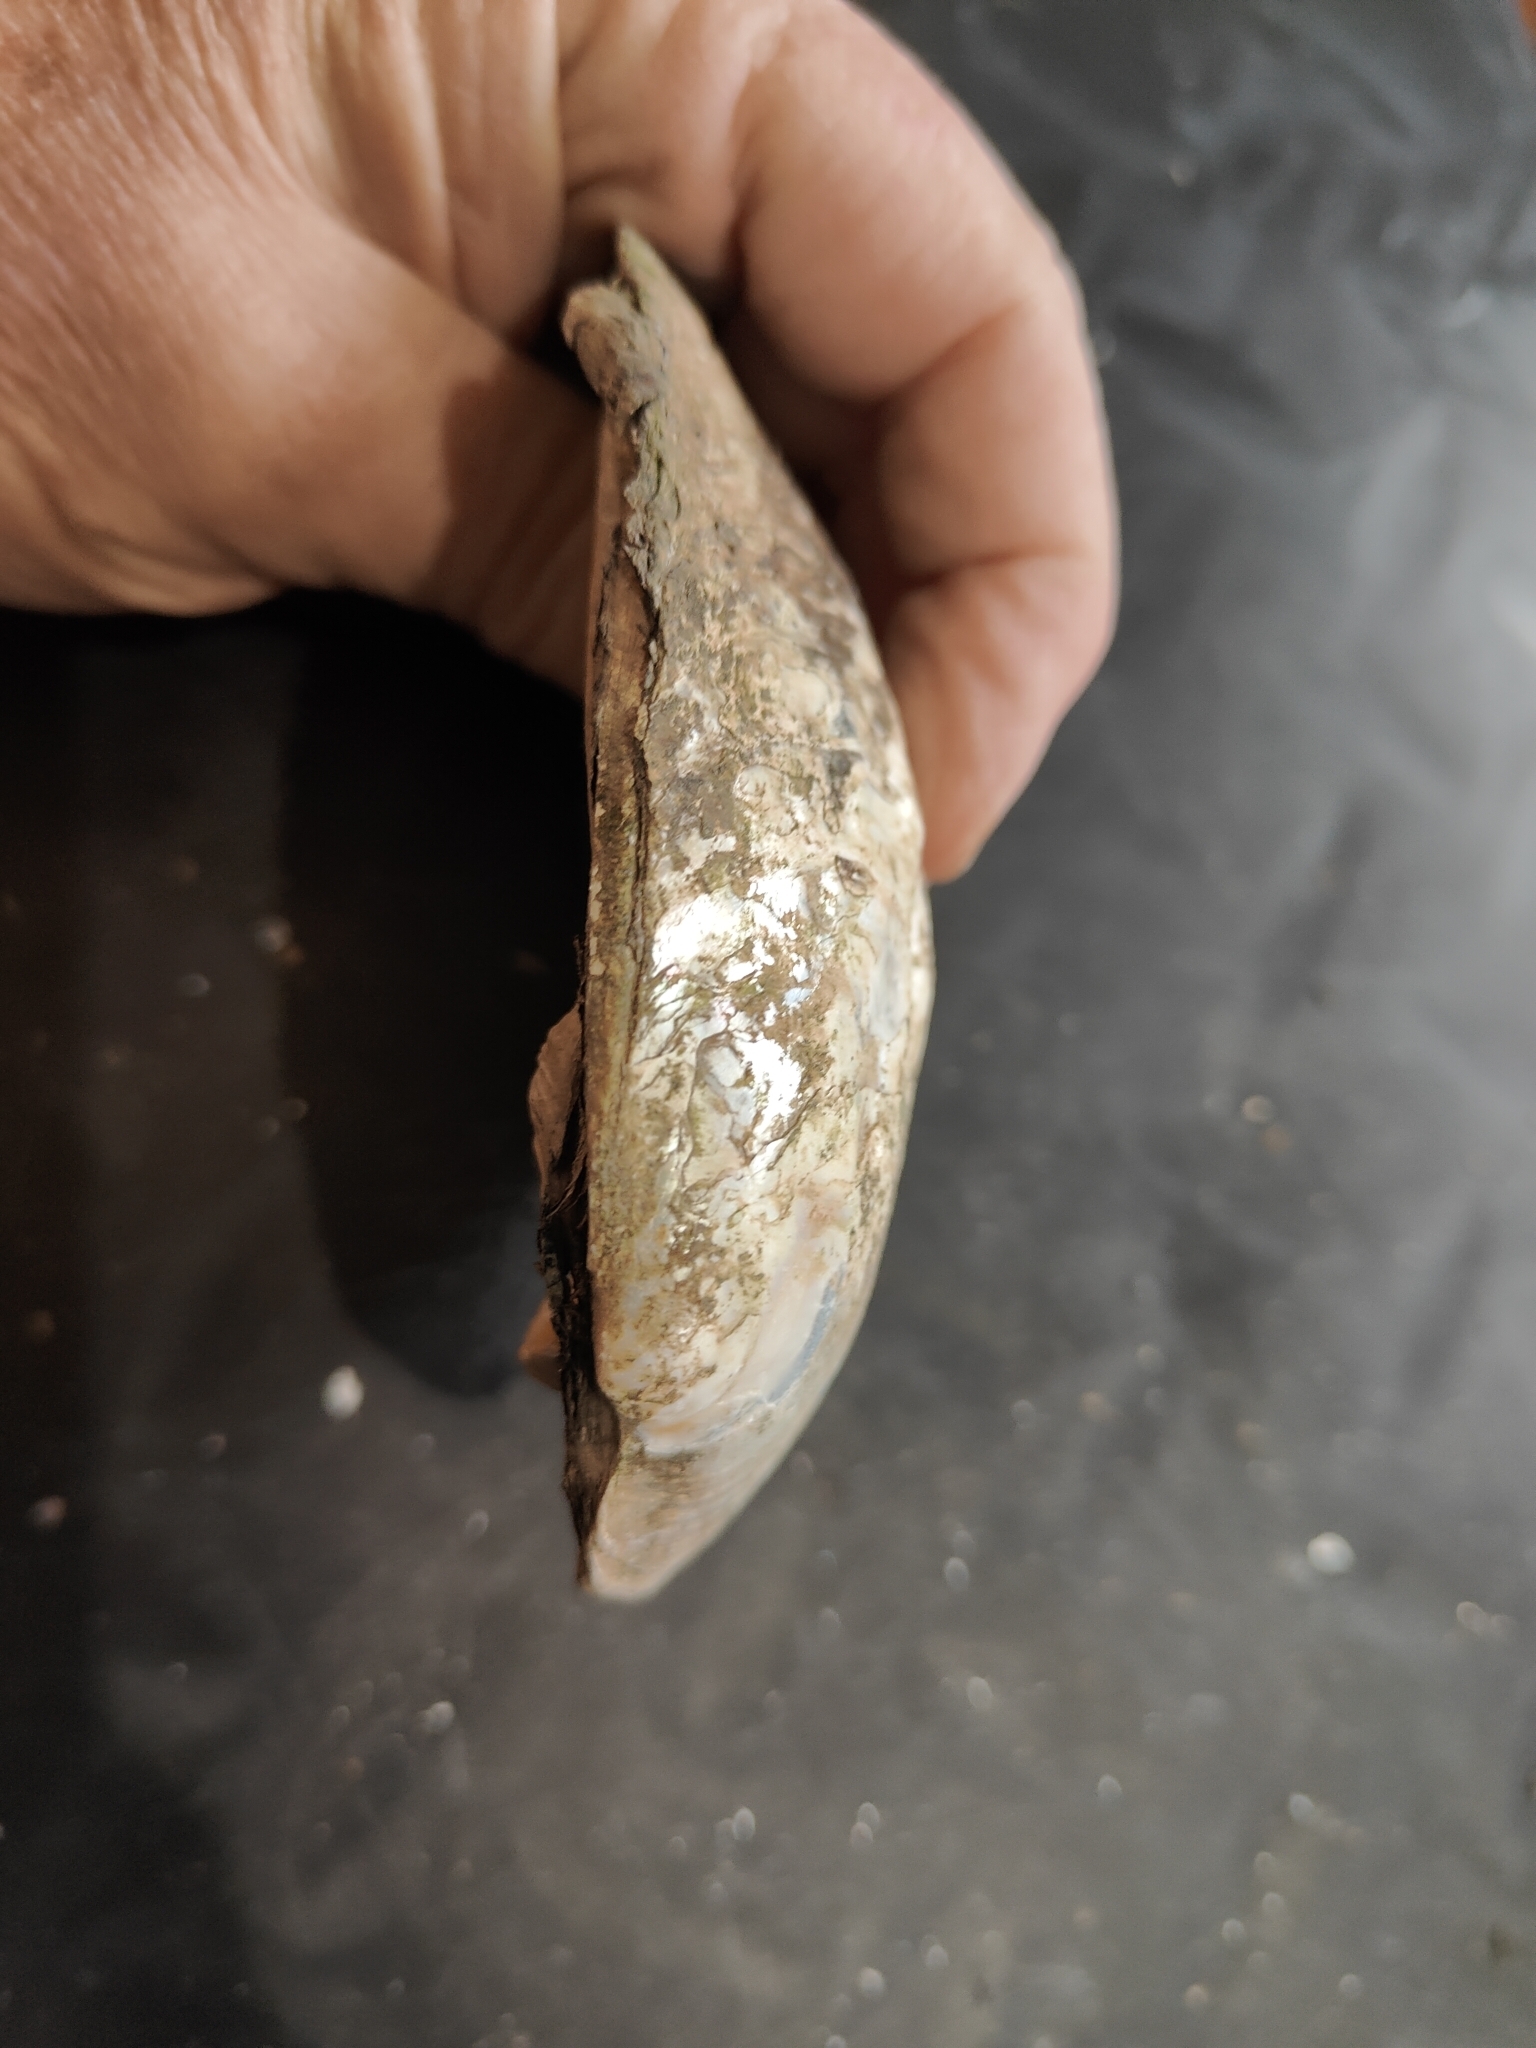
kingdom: Animalia
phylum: Mollusca
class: Bivalvia
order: Unionida
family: Unionidae
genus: Amblema
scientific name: Amblema plicata
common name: Threeridge
